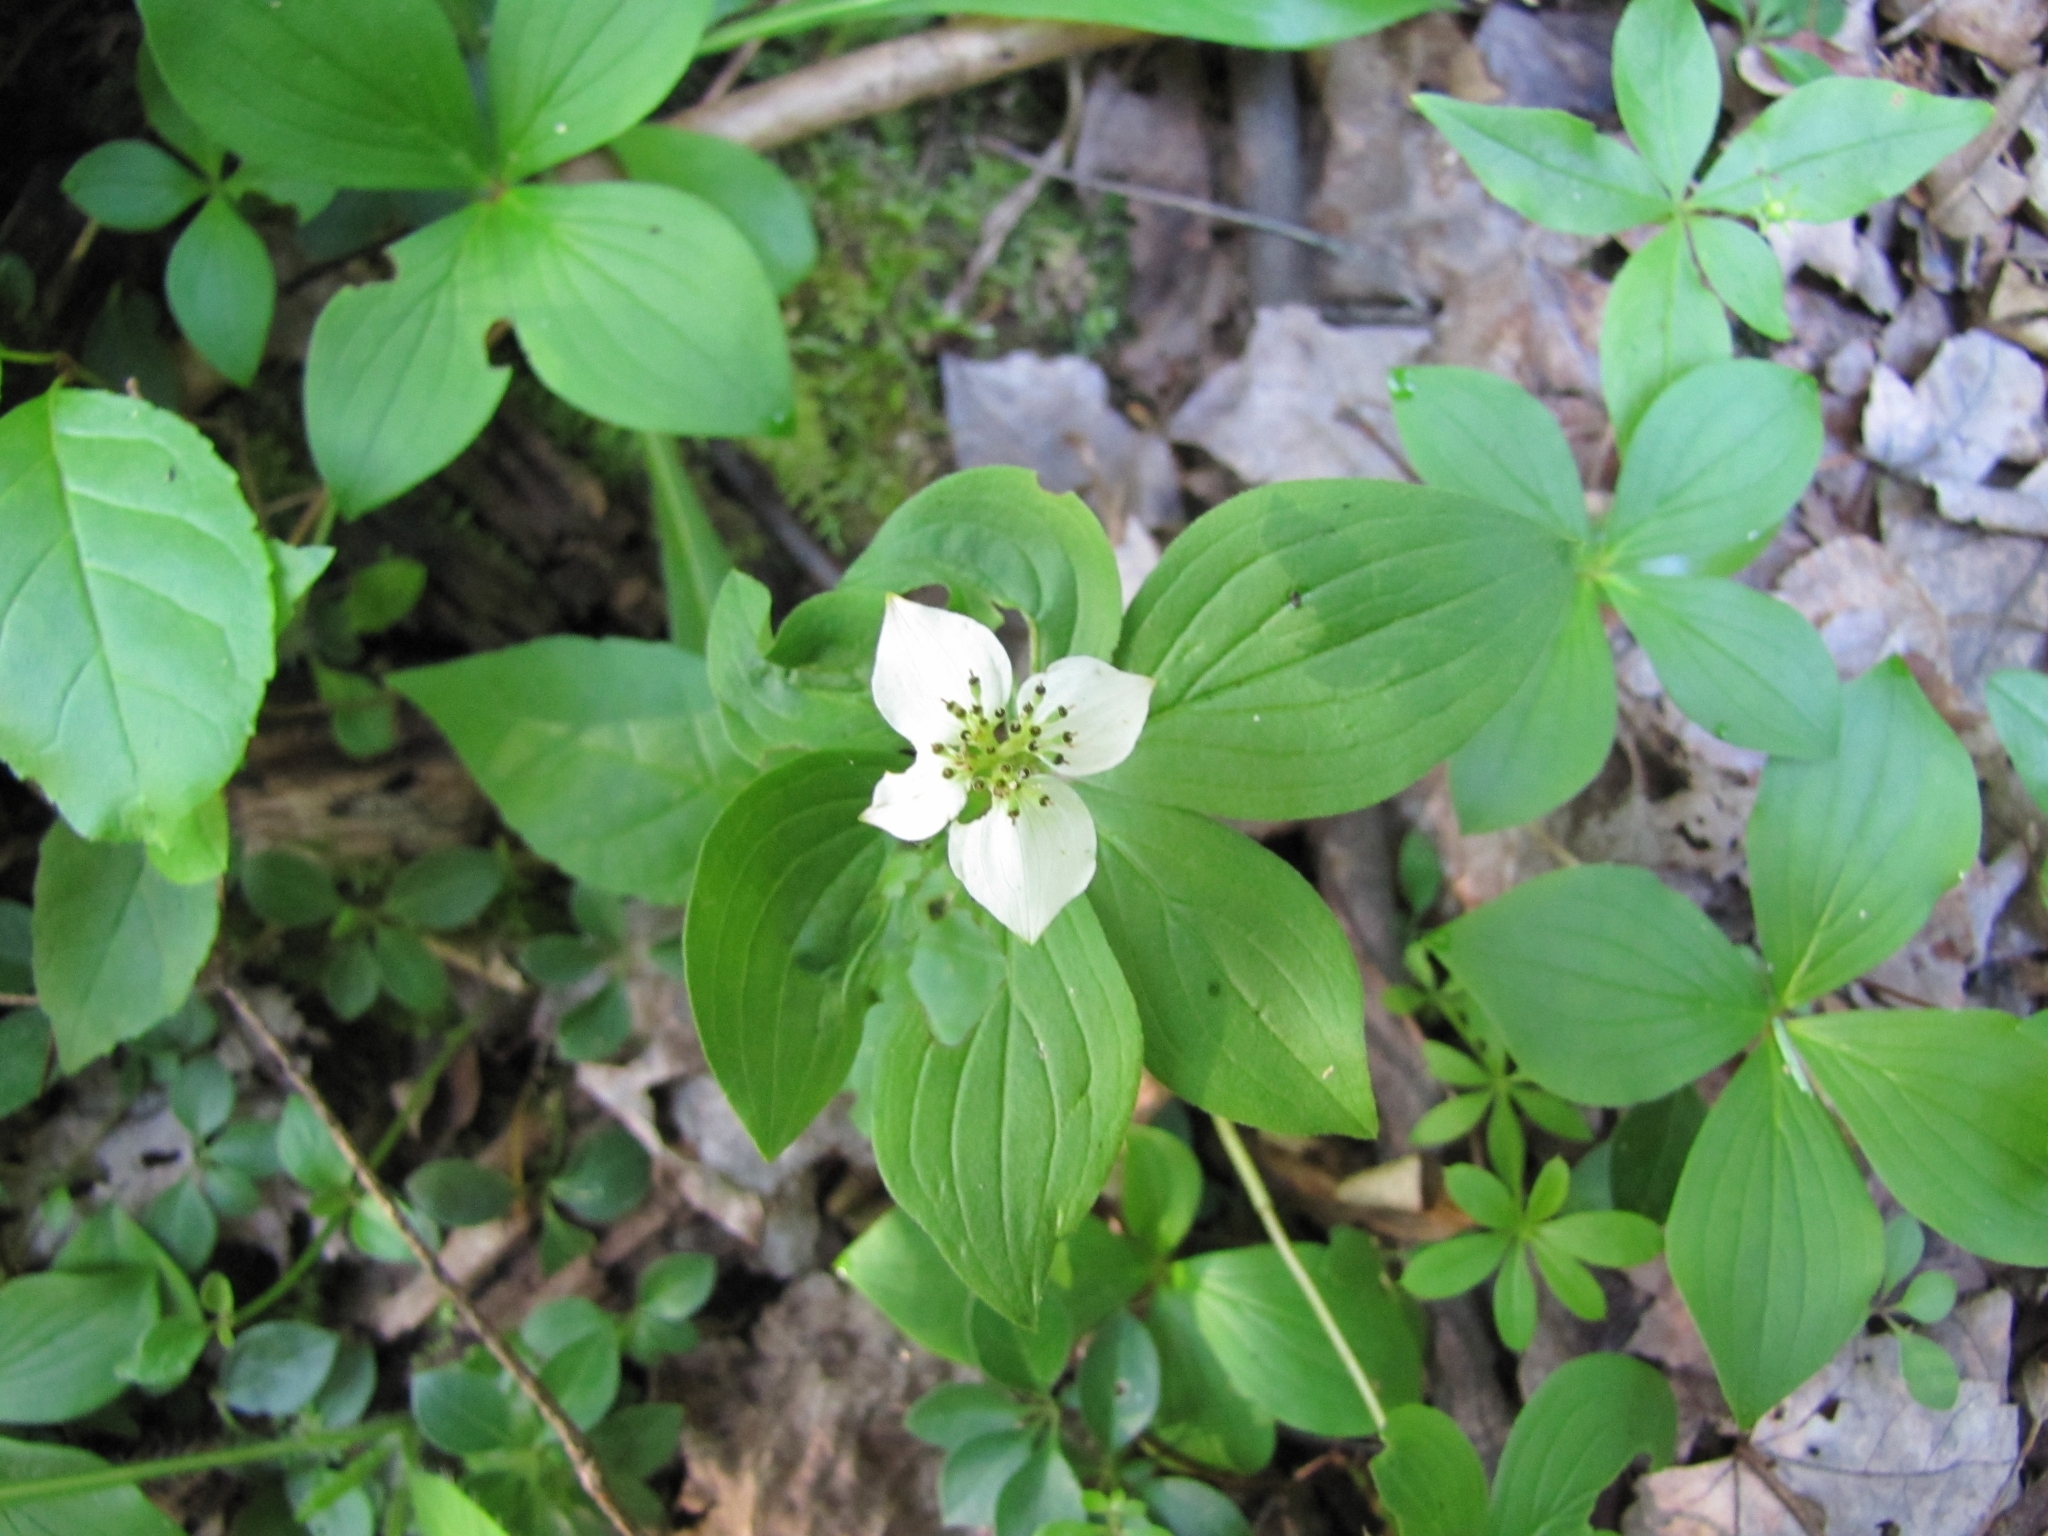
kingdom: Plantae
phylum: Tracheophyta
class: Magnoliopsida
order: Cornales
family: Cornaceae
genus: Cornus
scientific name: Cornus canadensis
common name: Creeping dogwood
